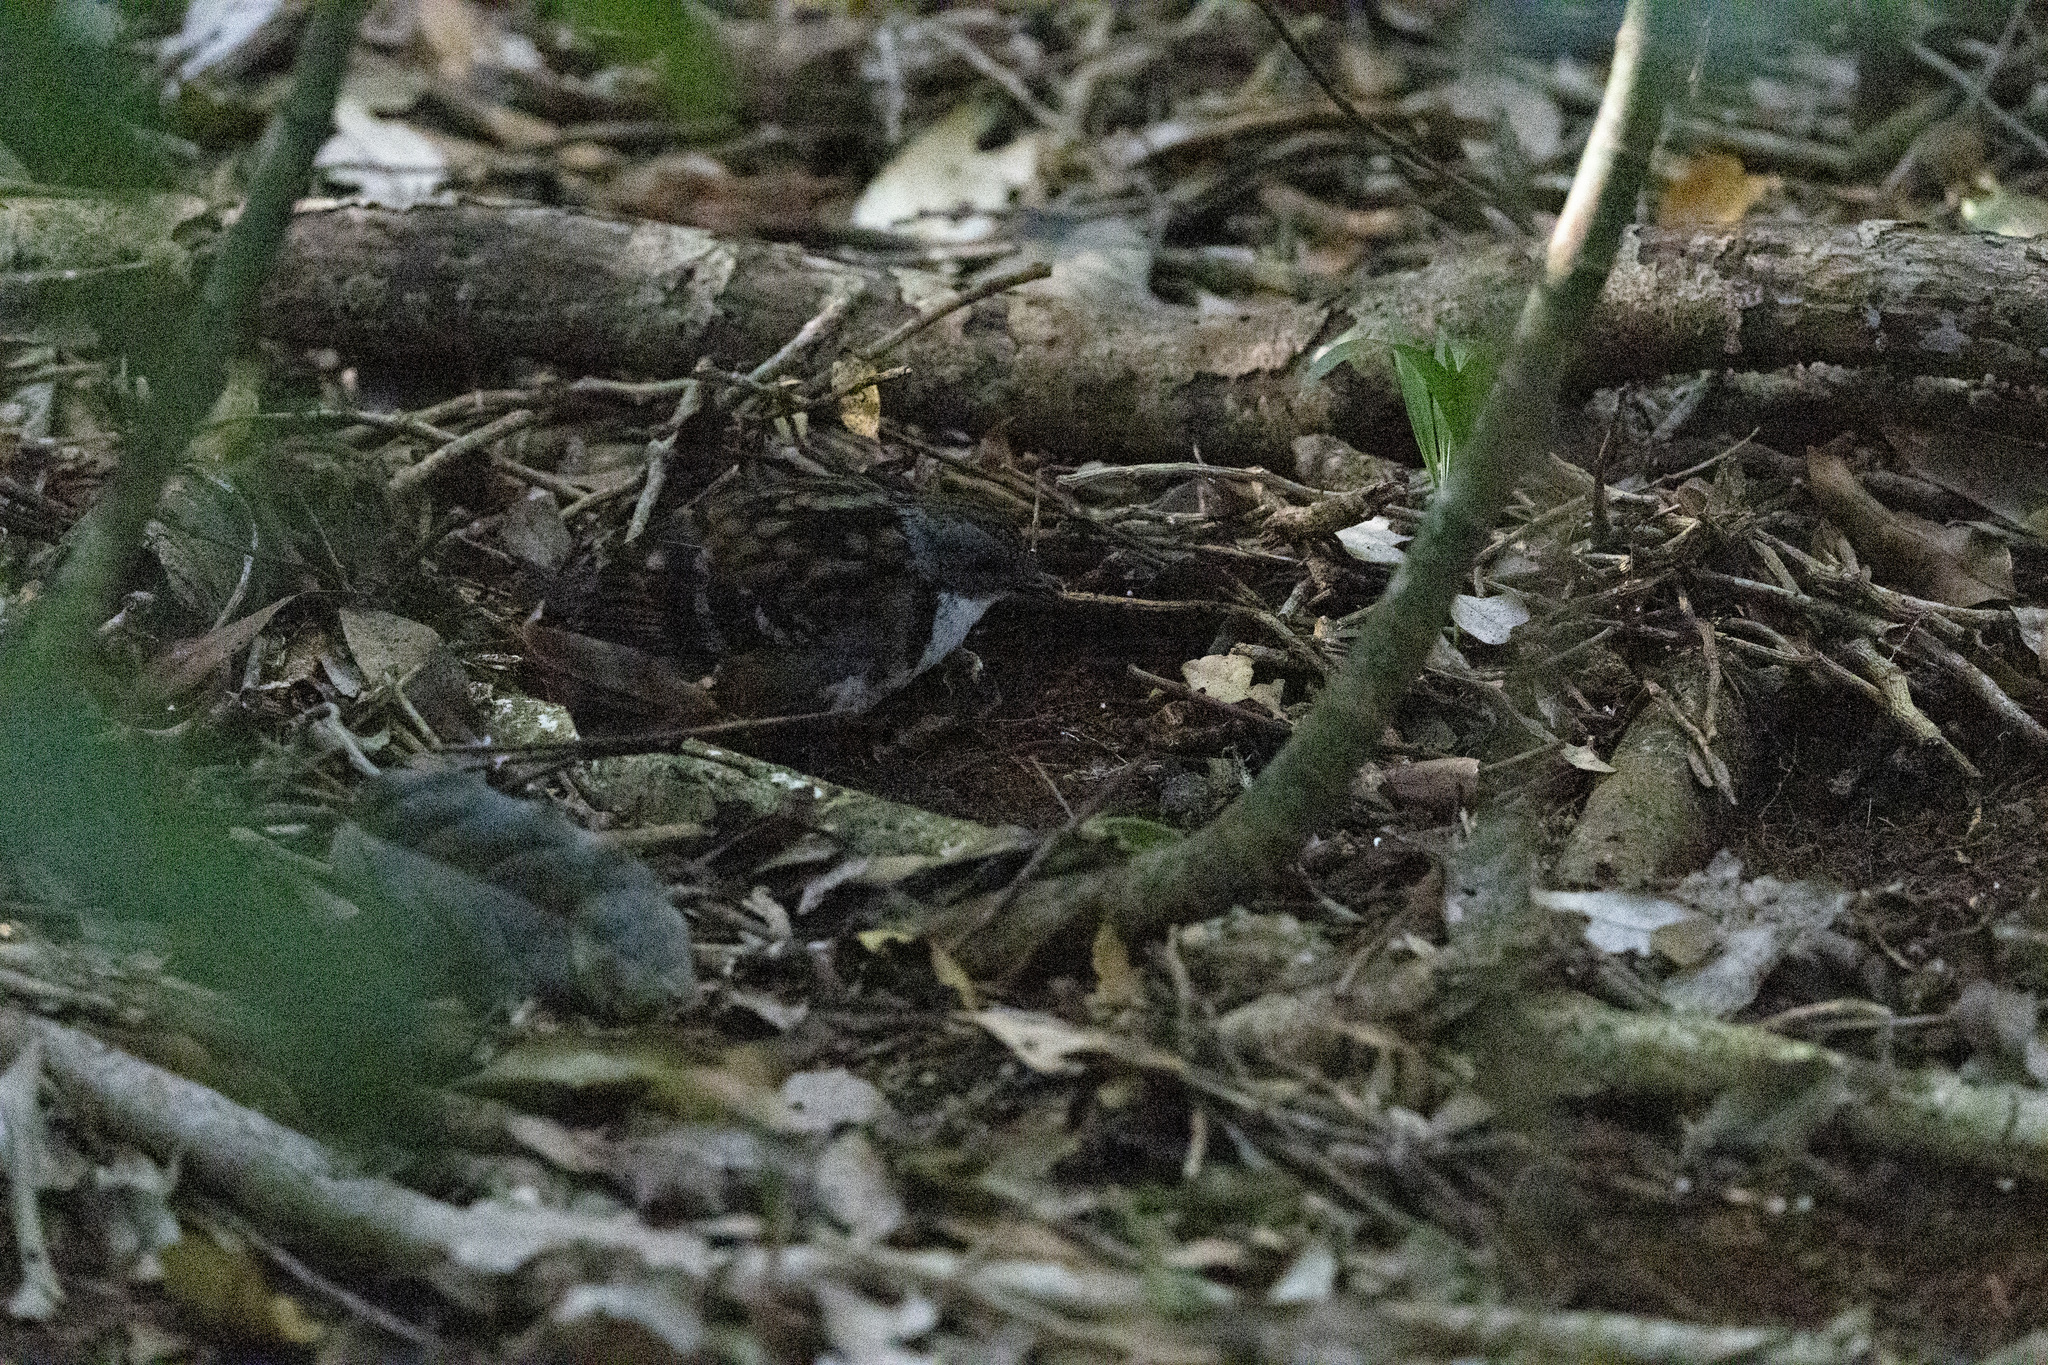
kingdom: Animalia
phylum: Chordata
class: Aves
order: Passeriformes
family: Orthonychidae
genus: Orthonyx
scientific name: Orthonyx temminckii
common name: Australian logrunner
